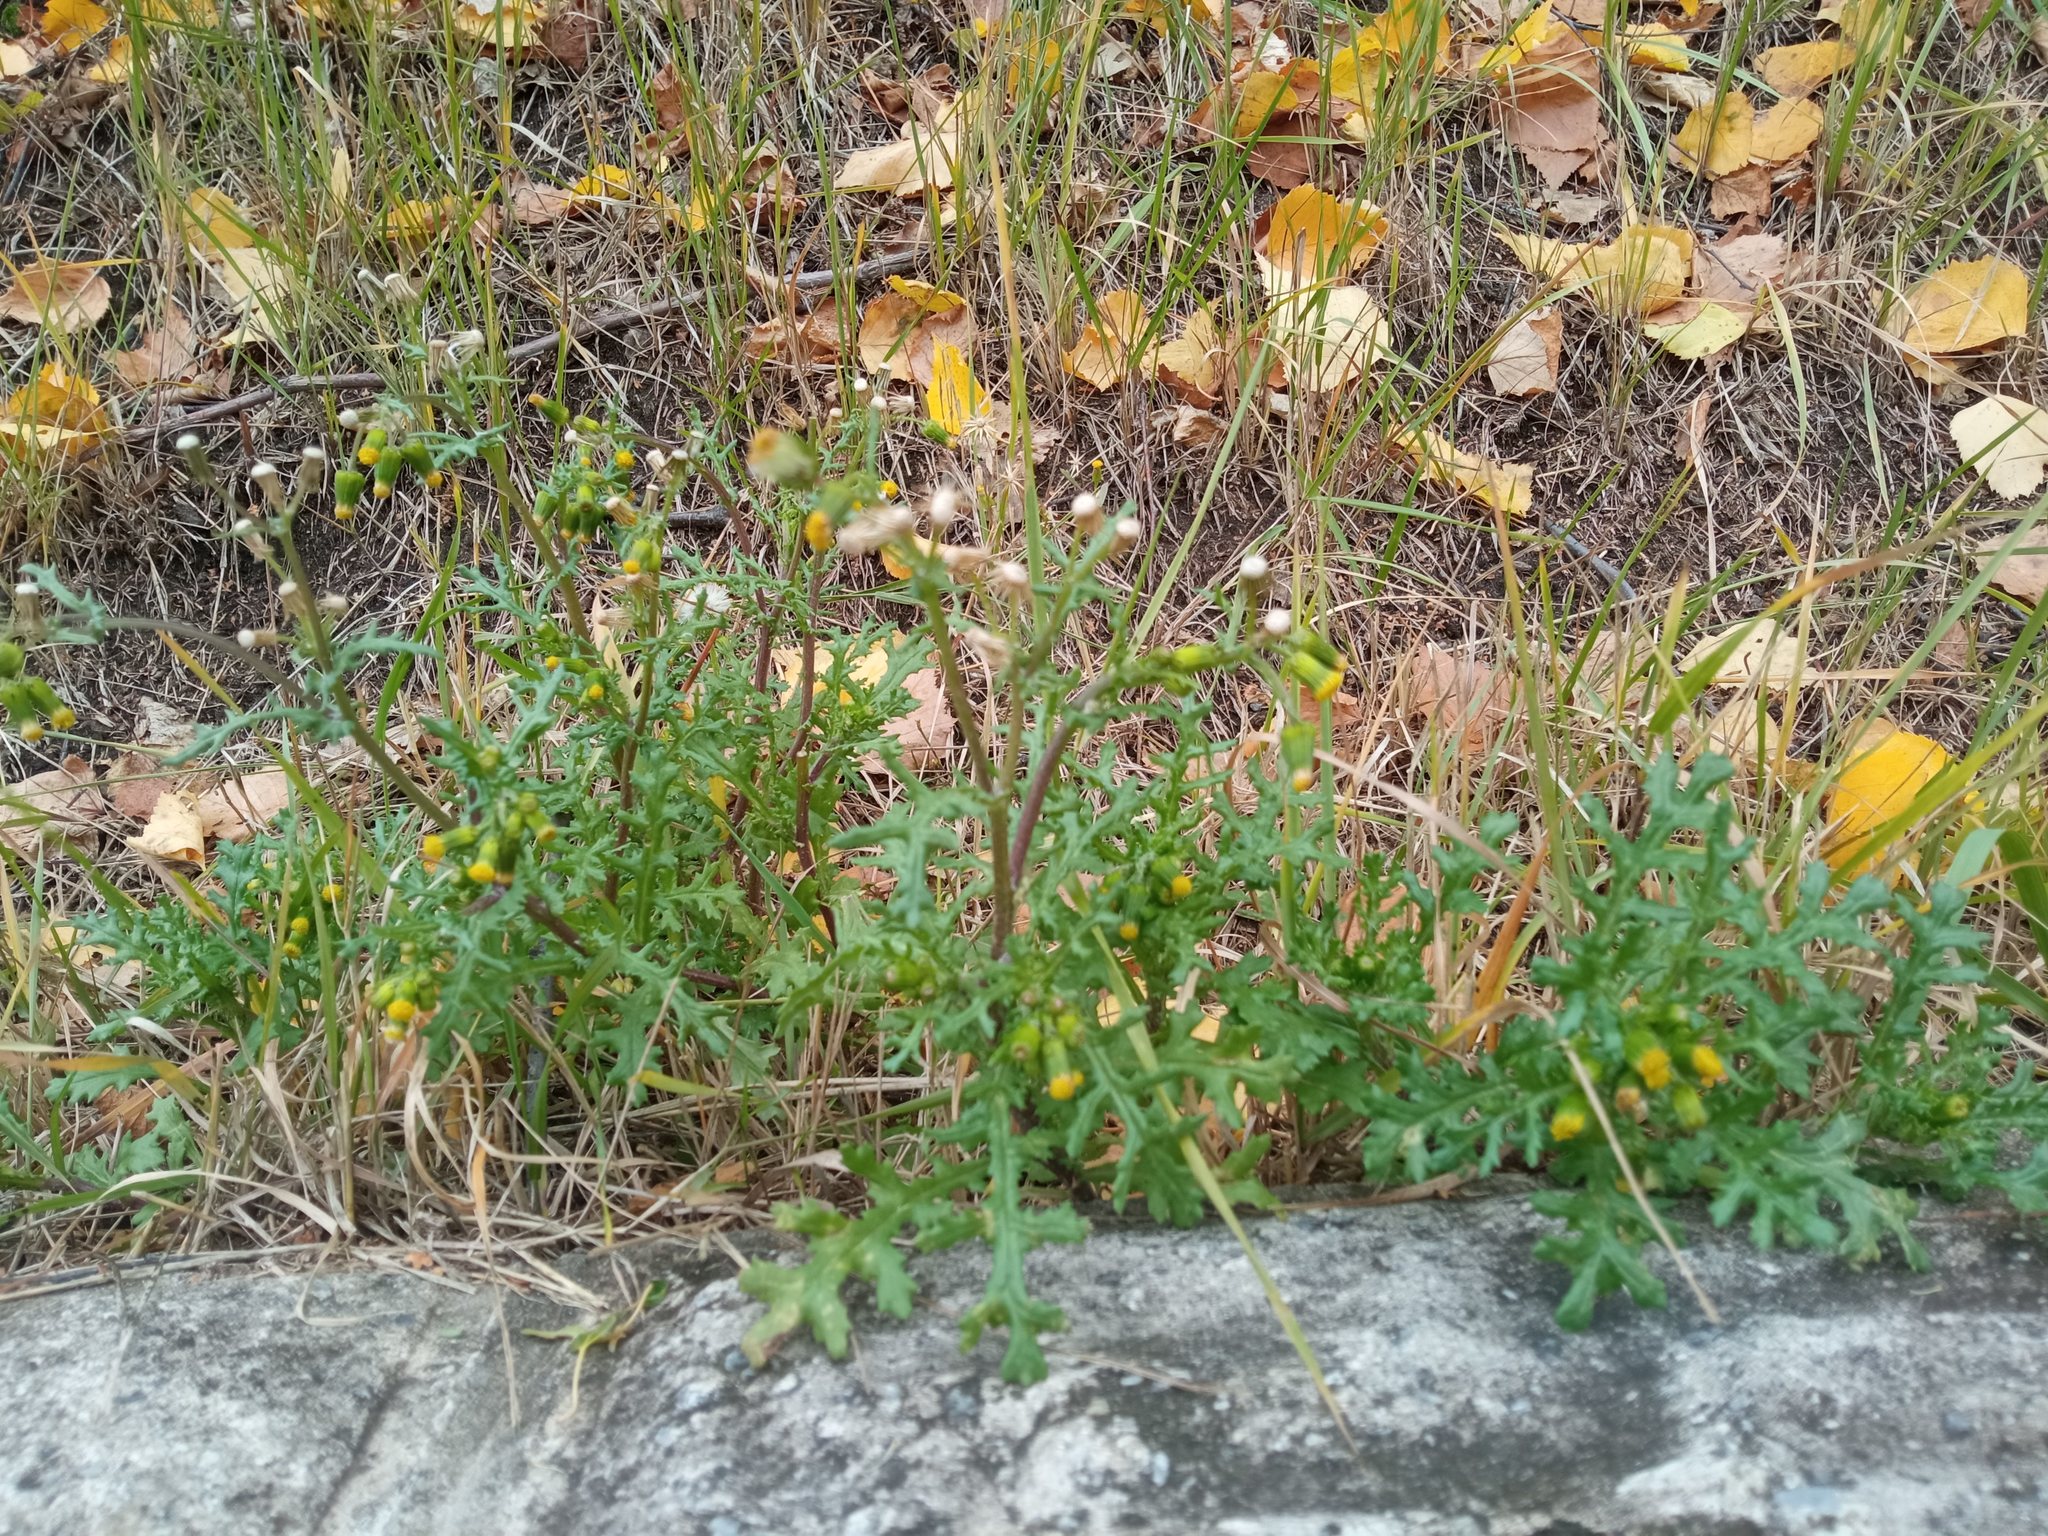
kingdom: Plantae
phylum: Tracheophyta
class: Magnoliopsida
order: Asterales
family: Asteraceae
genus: Senecio
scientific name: Senecio vulgaris
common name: Old-man-in-the-spring
